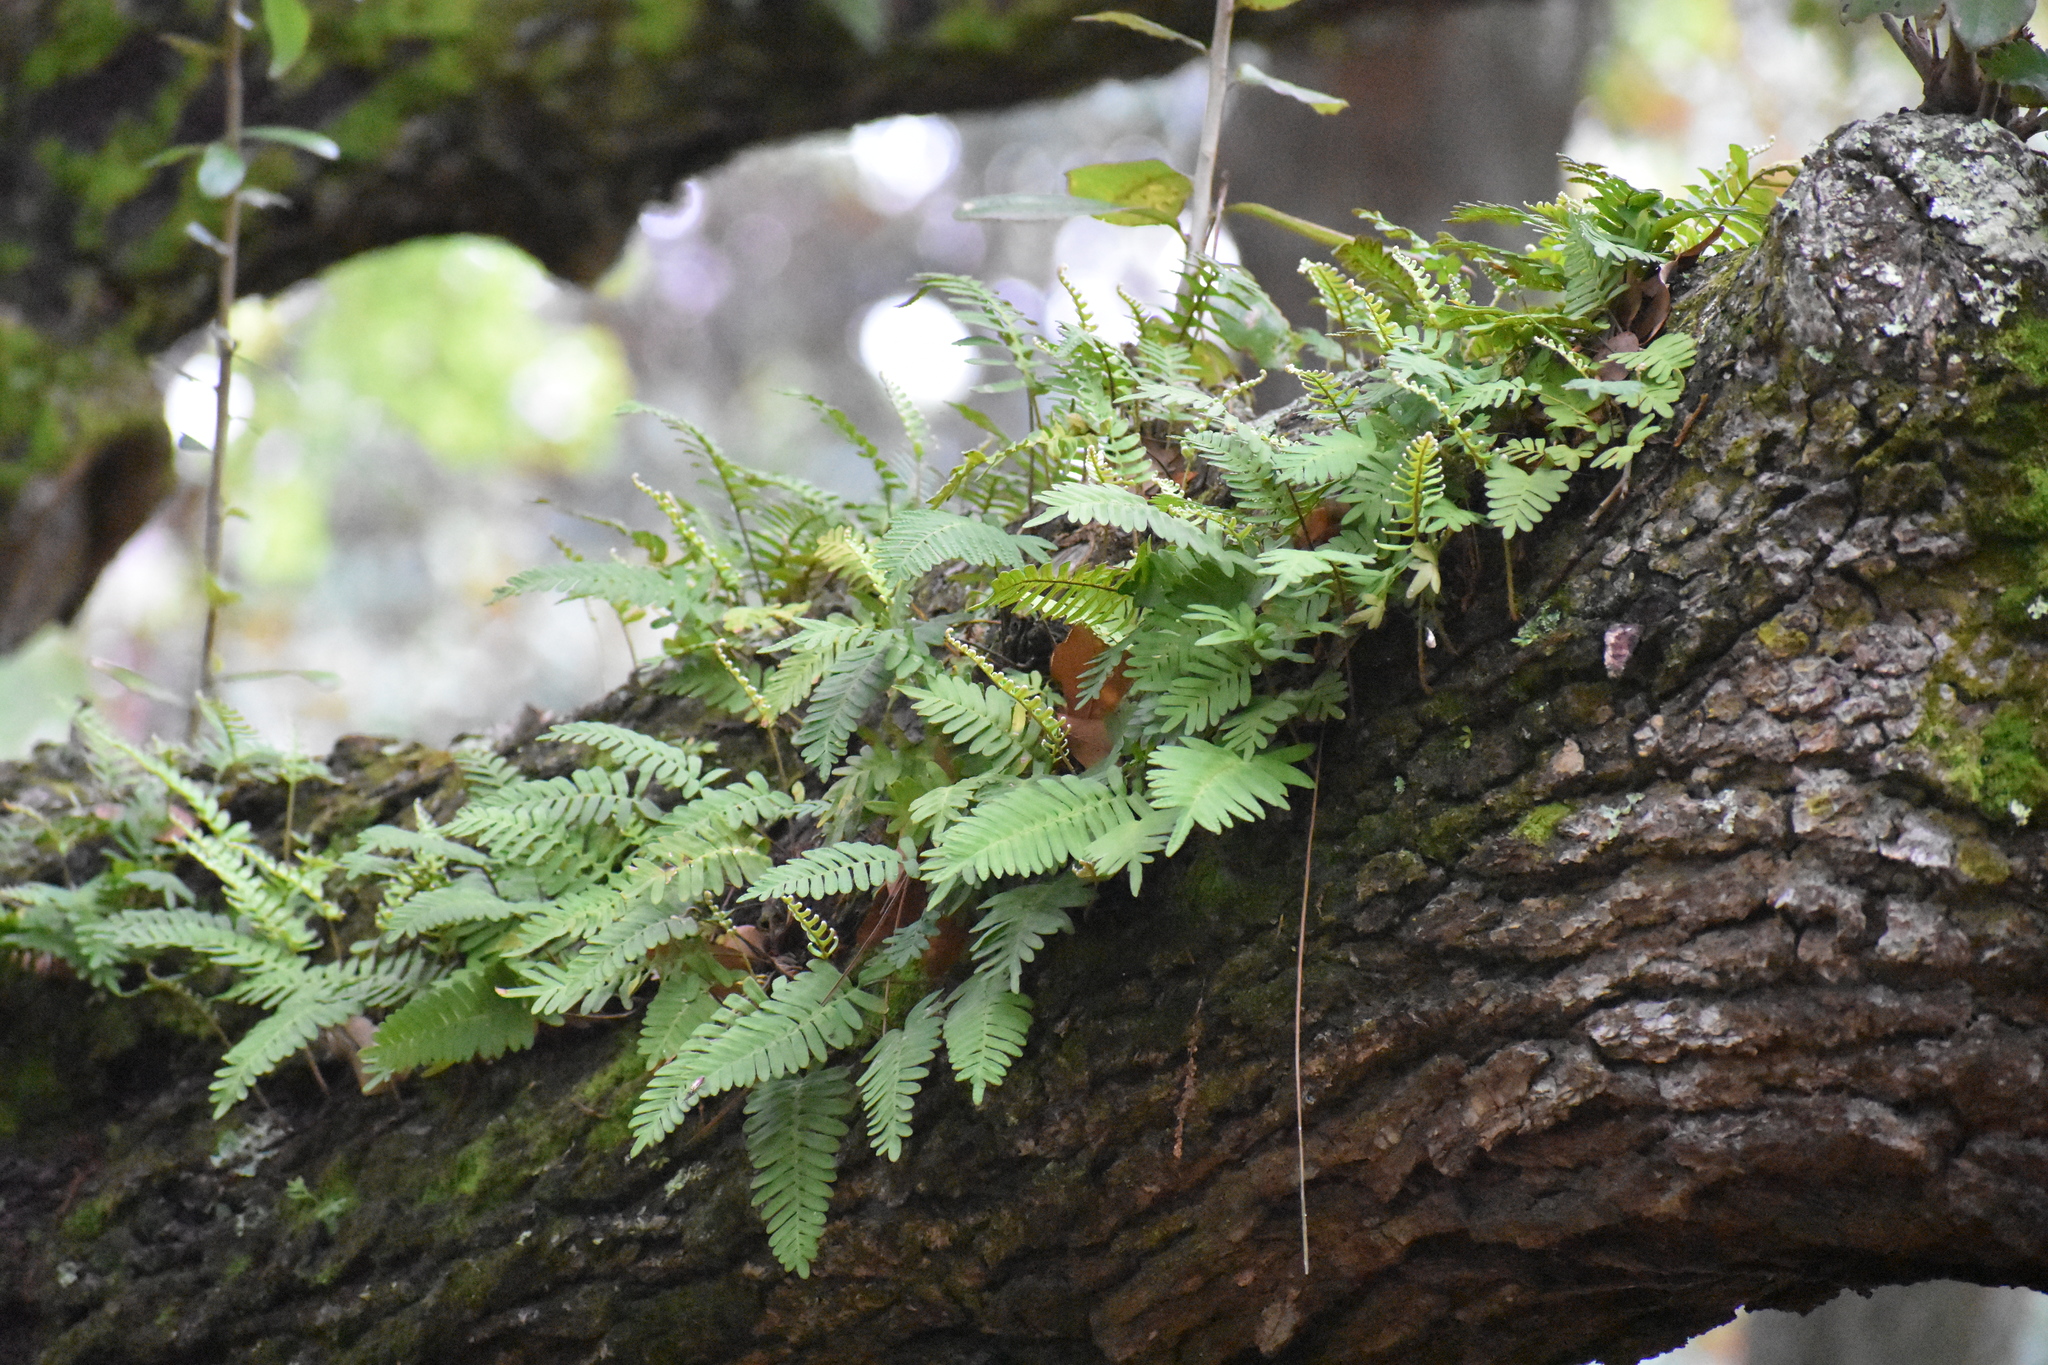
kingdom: Plantae
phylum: Tracheophyta
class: Polypodiopsida
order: Polypodiales
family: Polypodiaceae
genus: Pleopeltis
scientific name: Pleopeltis michauxiana
